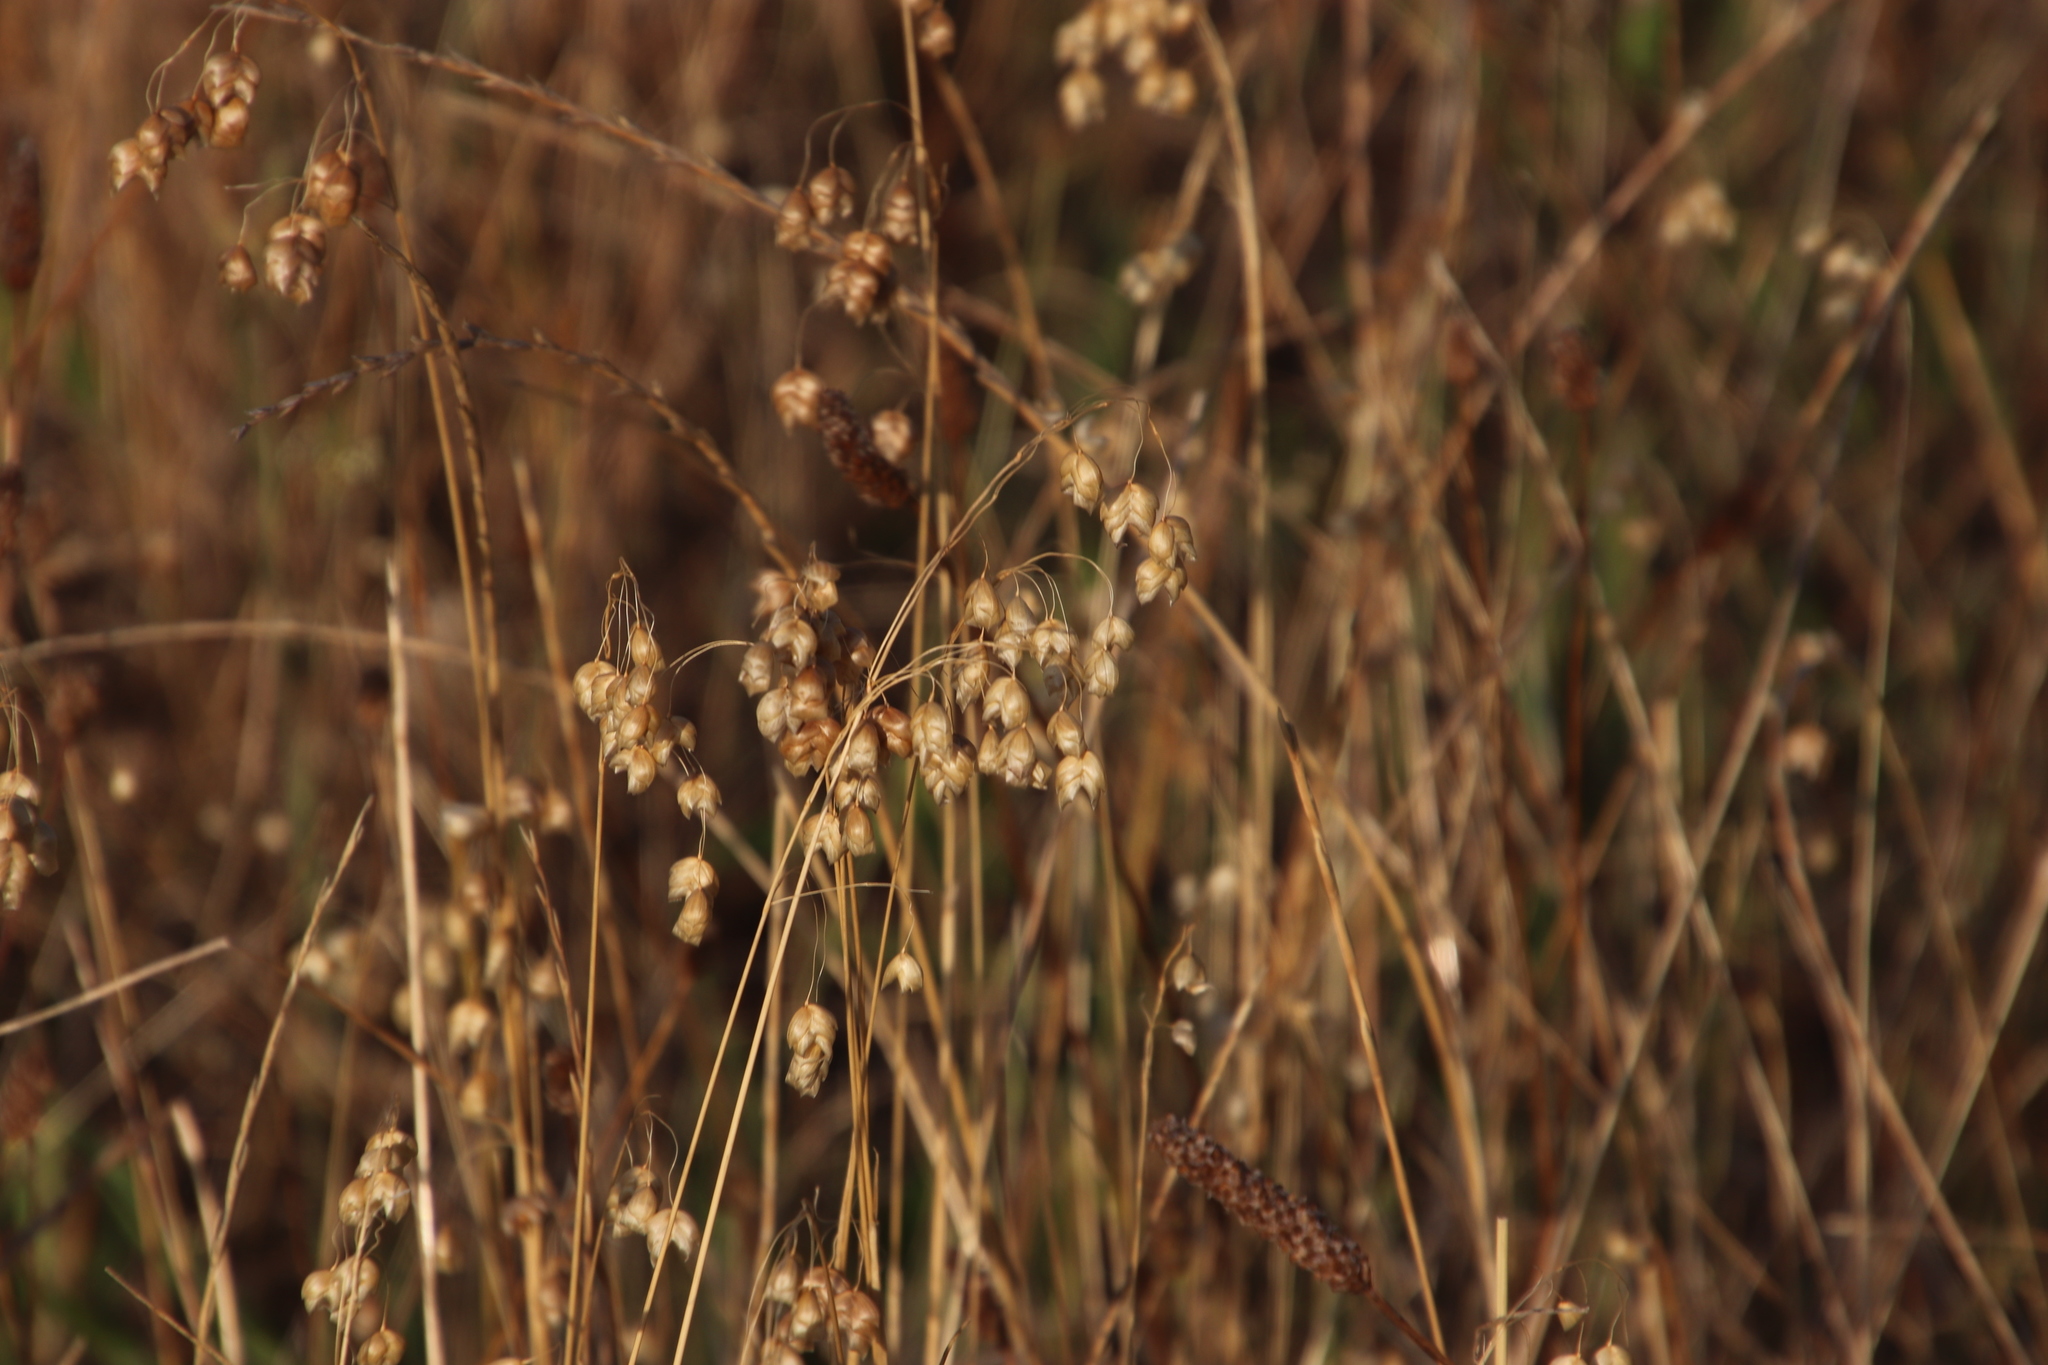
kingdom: Plantae
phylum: Tracheophyta
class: Liliopsida
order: Poales
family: Poaceae
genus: Briza
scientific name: Briza maxima
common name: Big quakinggrass
